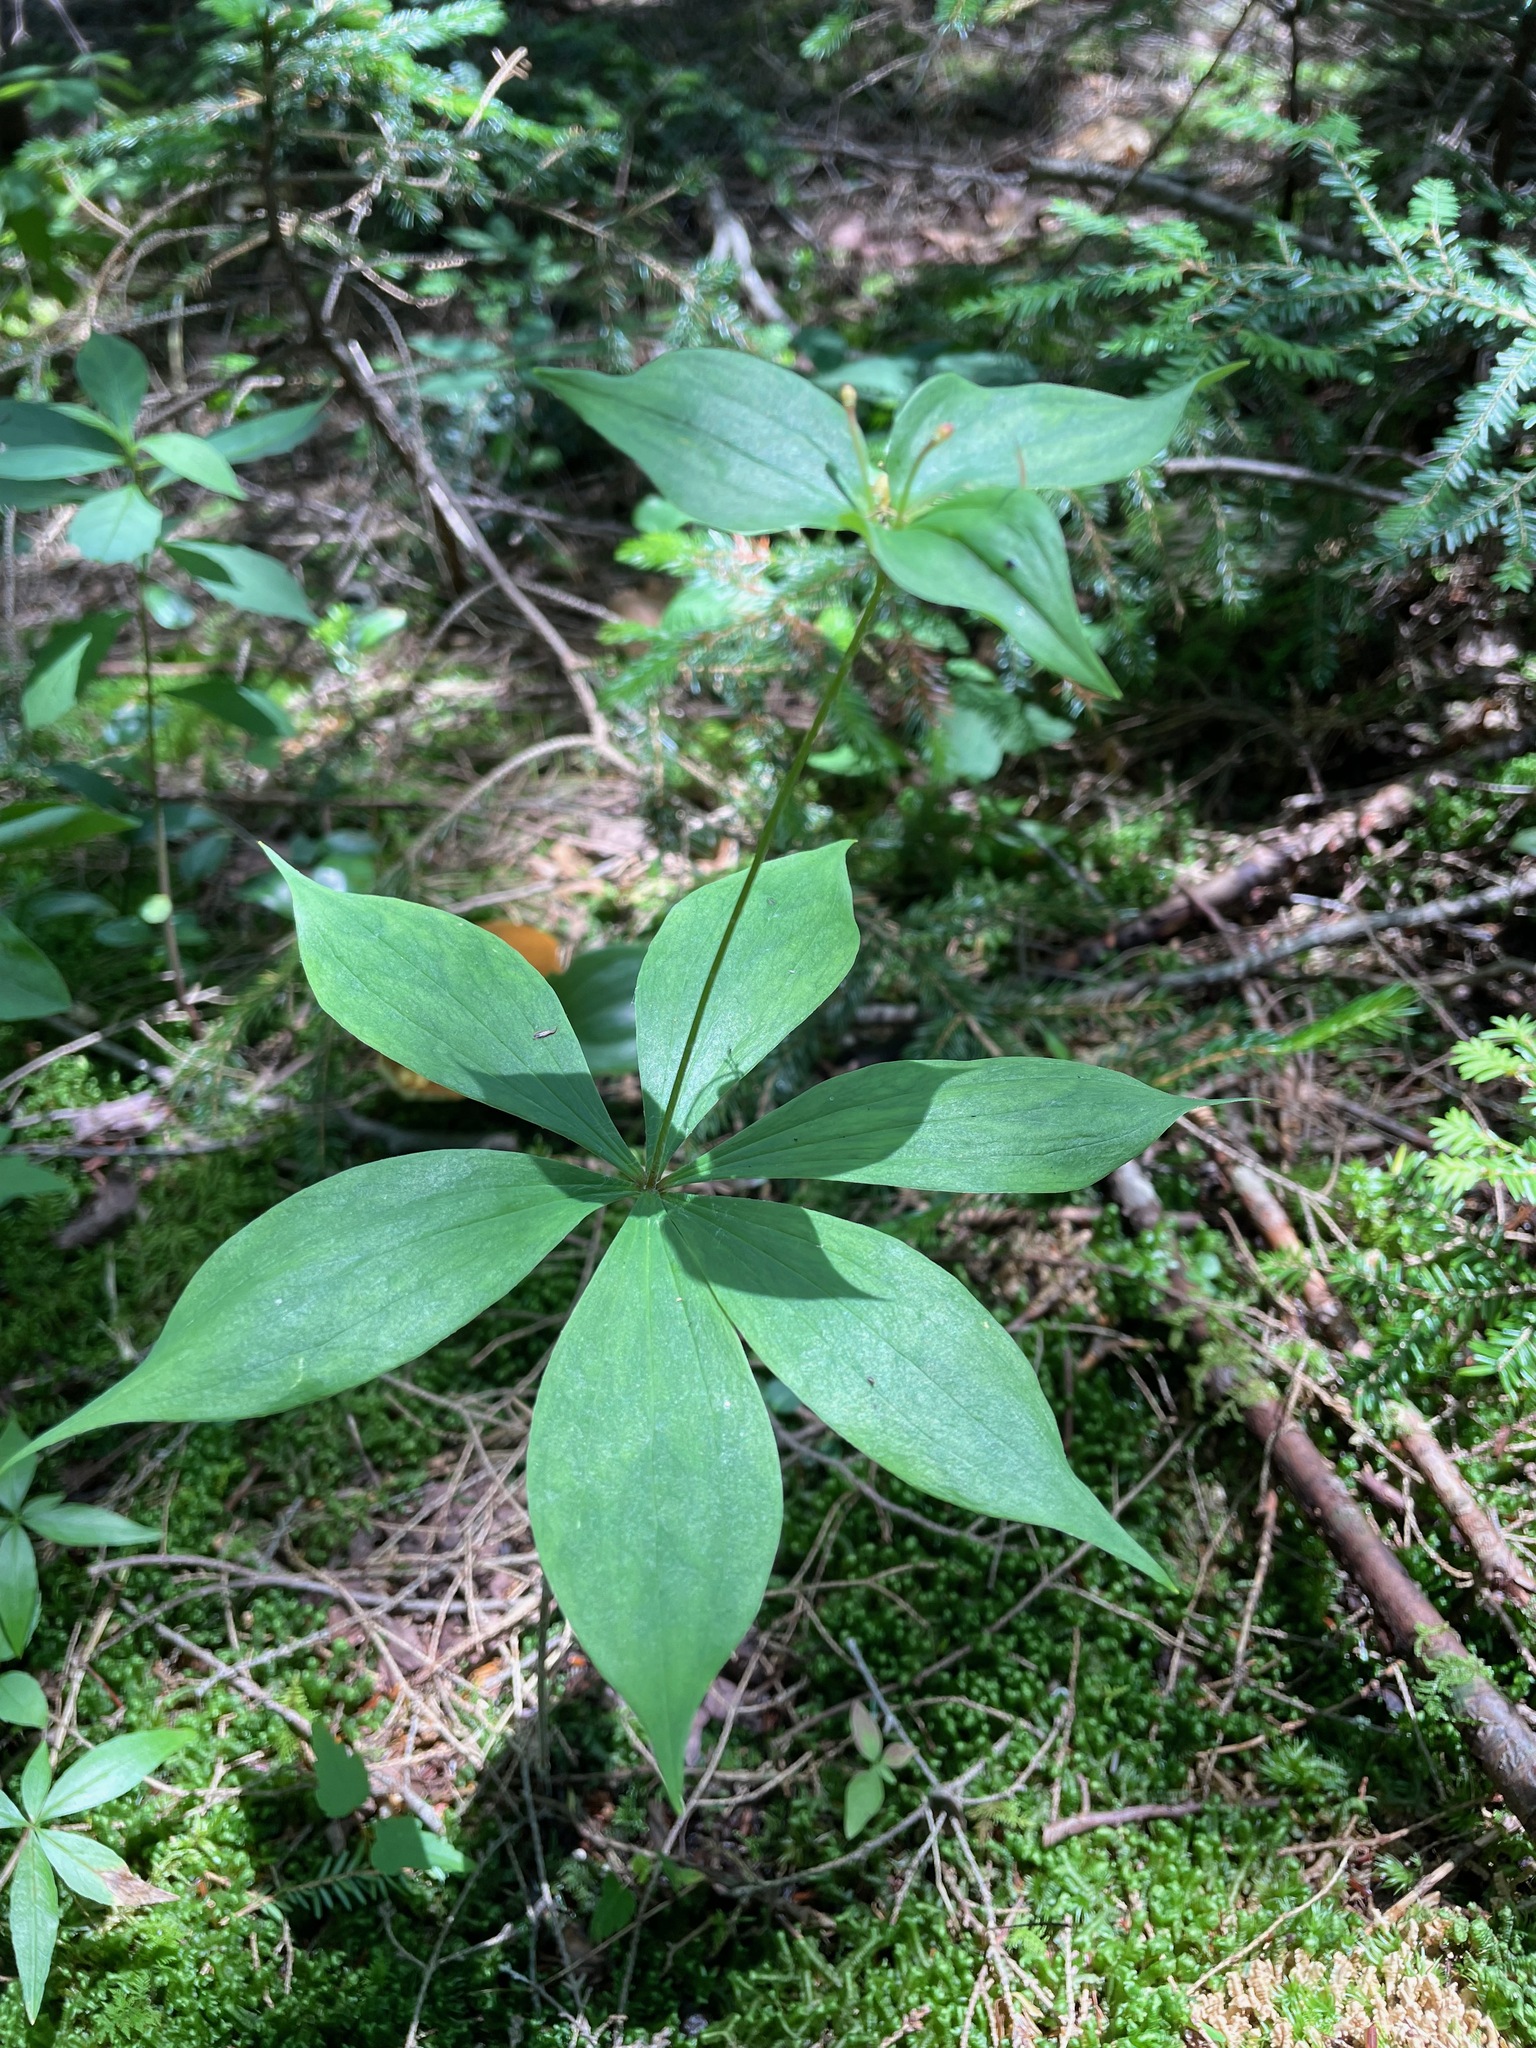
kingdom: Plantae
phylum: Tracheophyta
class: Liliopsida
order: Liliales
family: Liliaceae
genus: Medeola
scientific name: Medeola virginiana
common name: Indian cucumber-root
